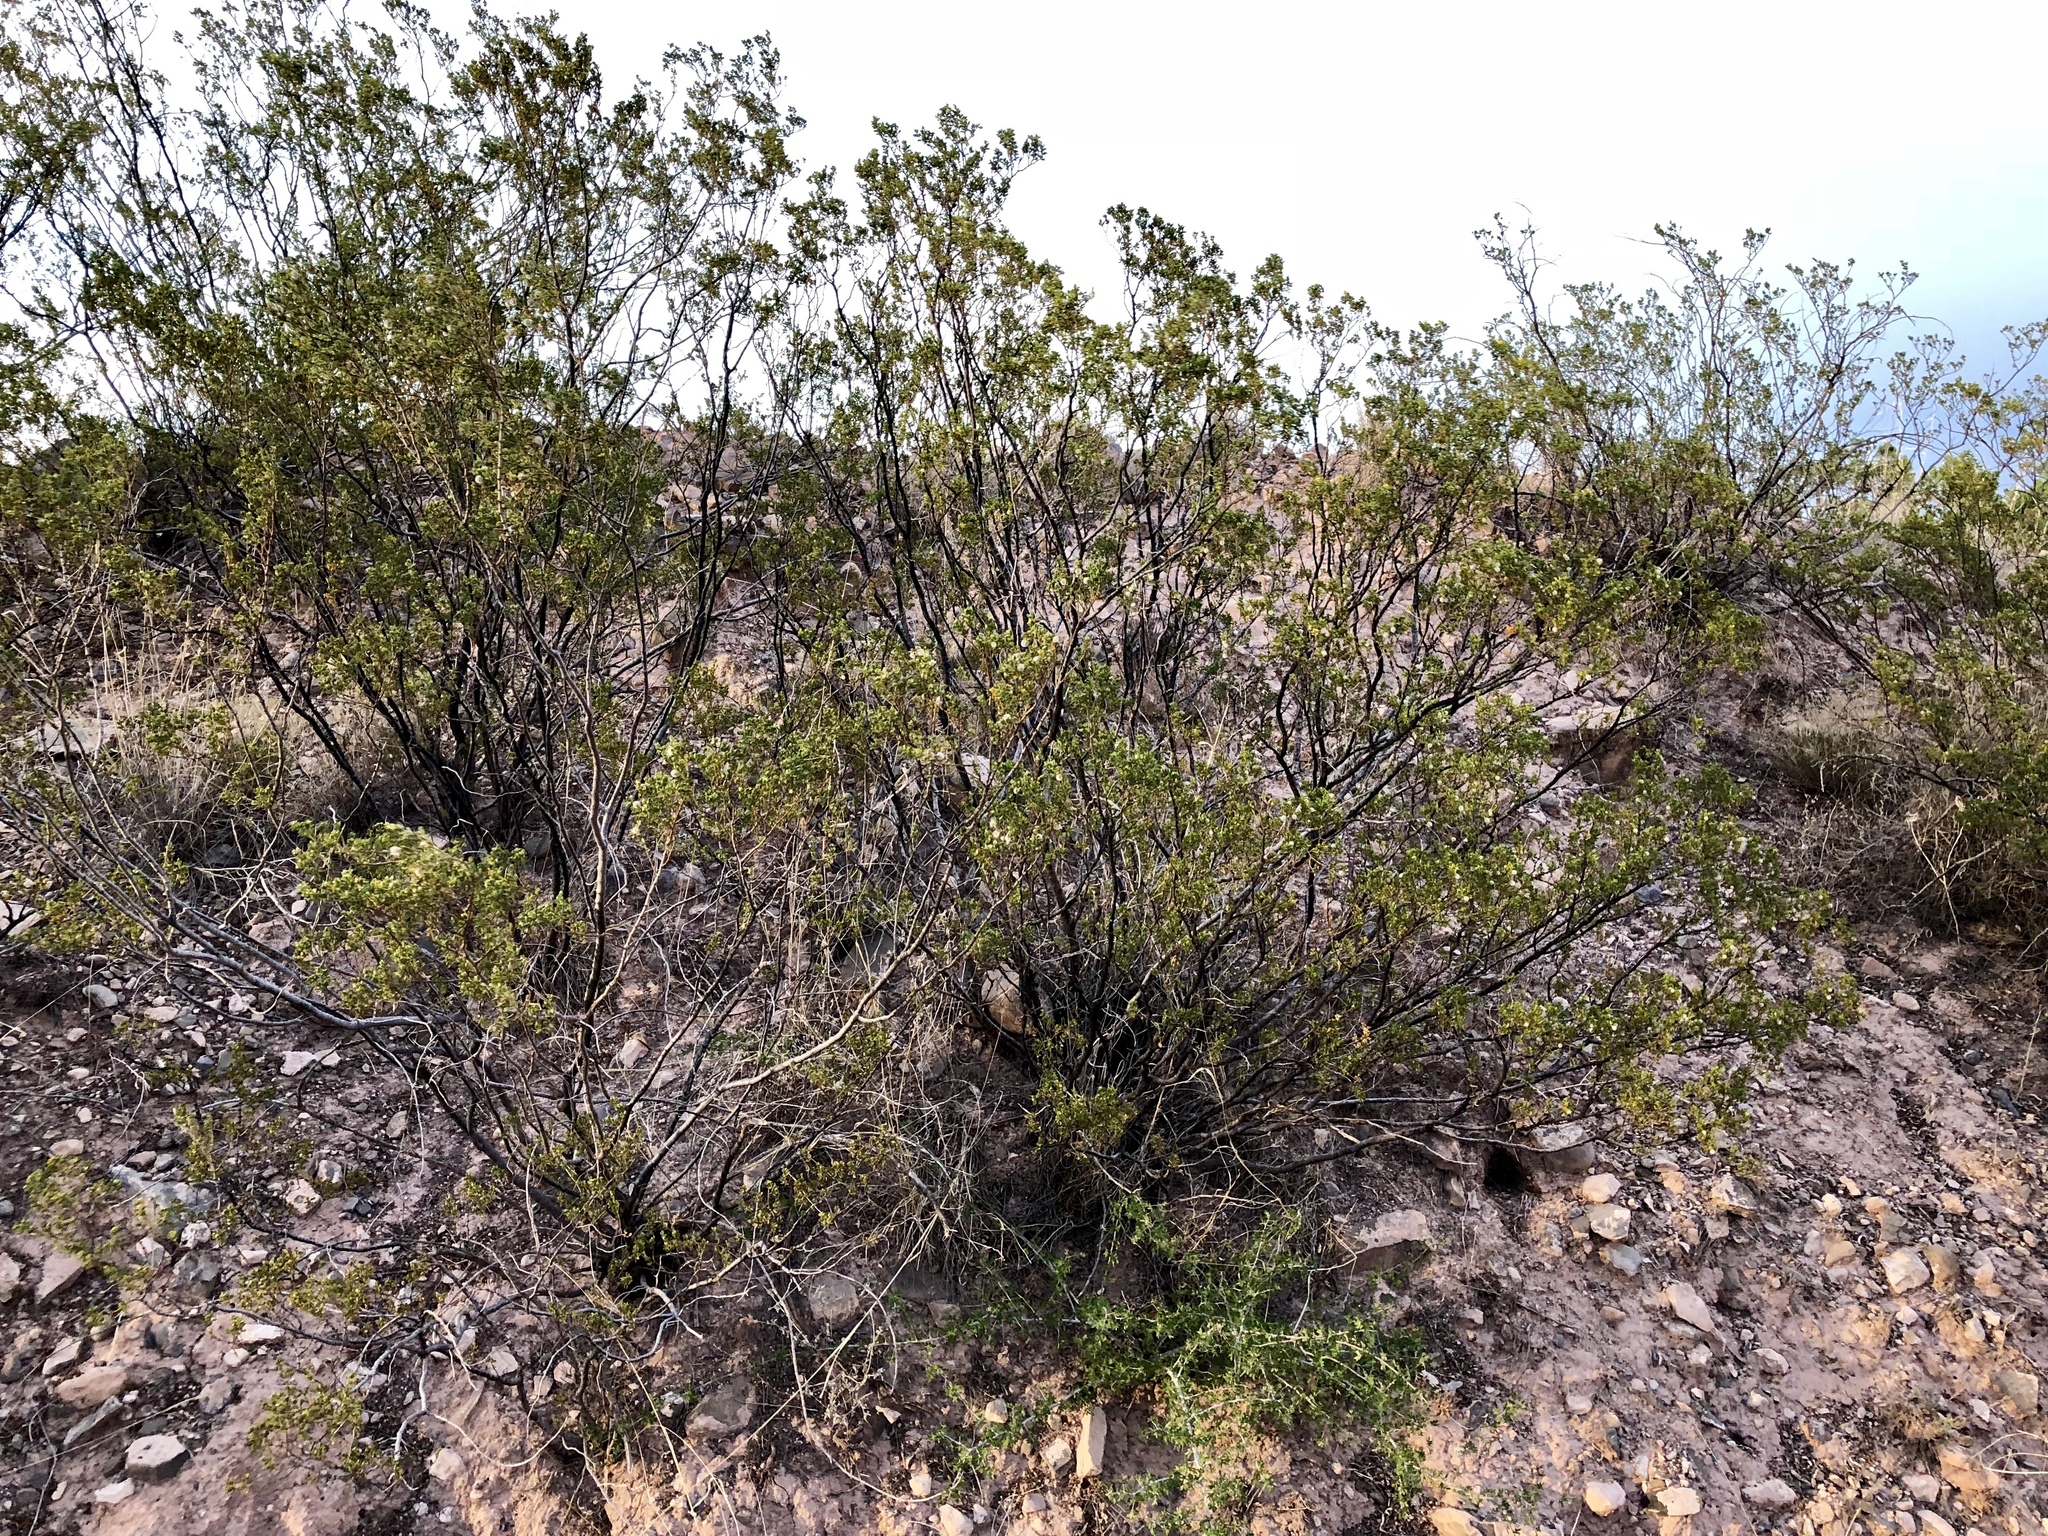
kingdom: Plantae
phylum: Tracheophyta
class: Magnoliopsida
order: Zygophyllales
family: Zygophyllaceae
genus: Larrea
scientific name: Larrea tridentata
